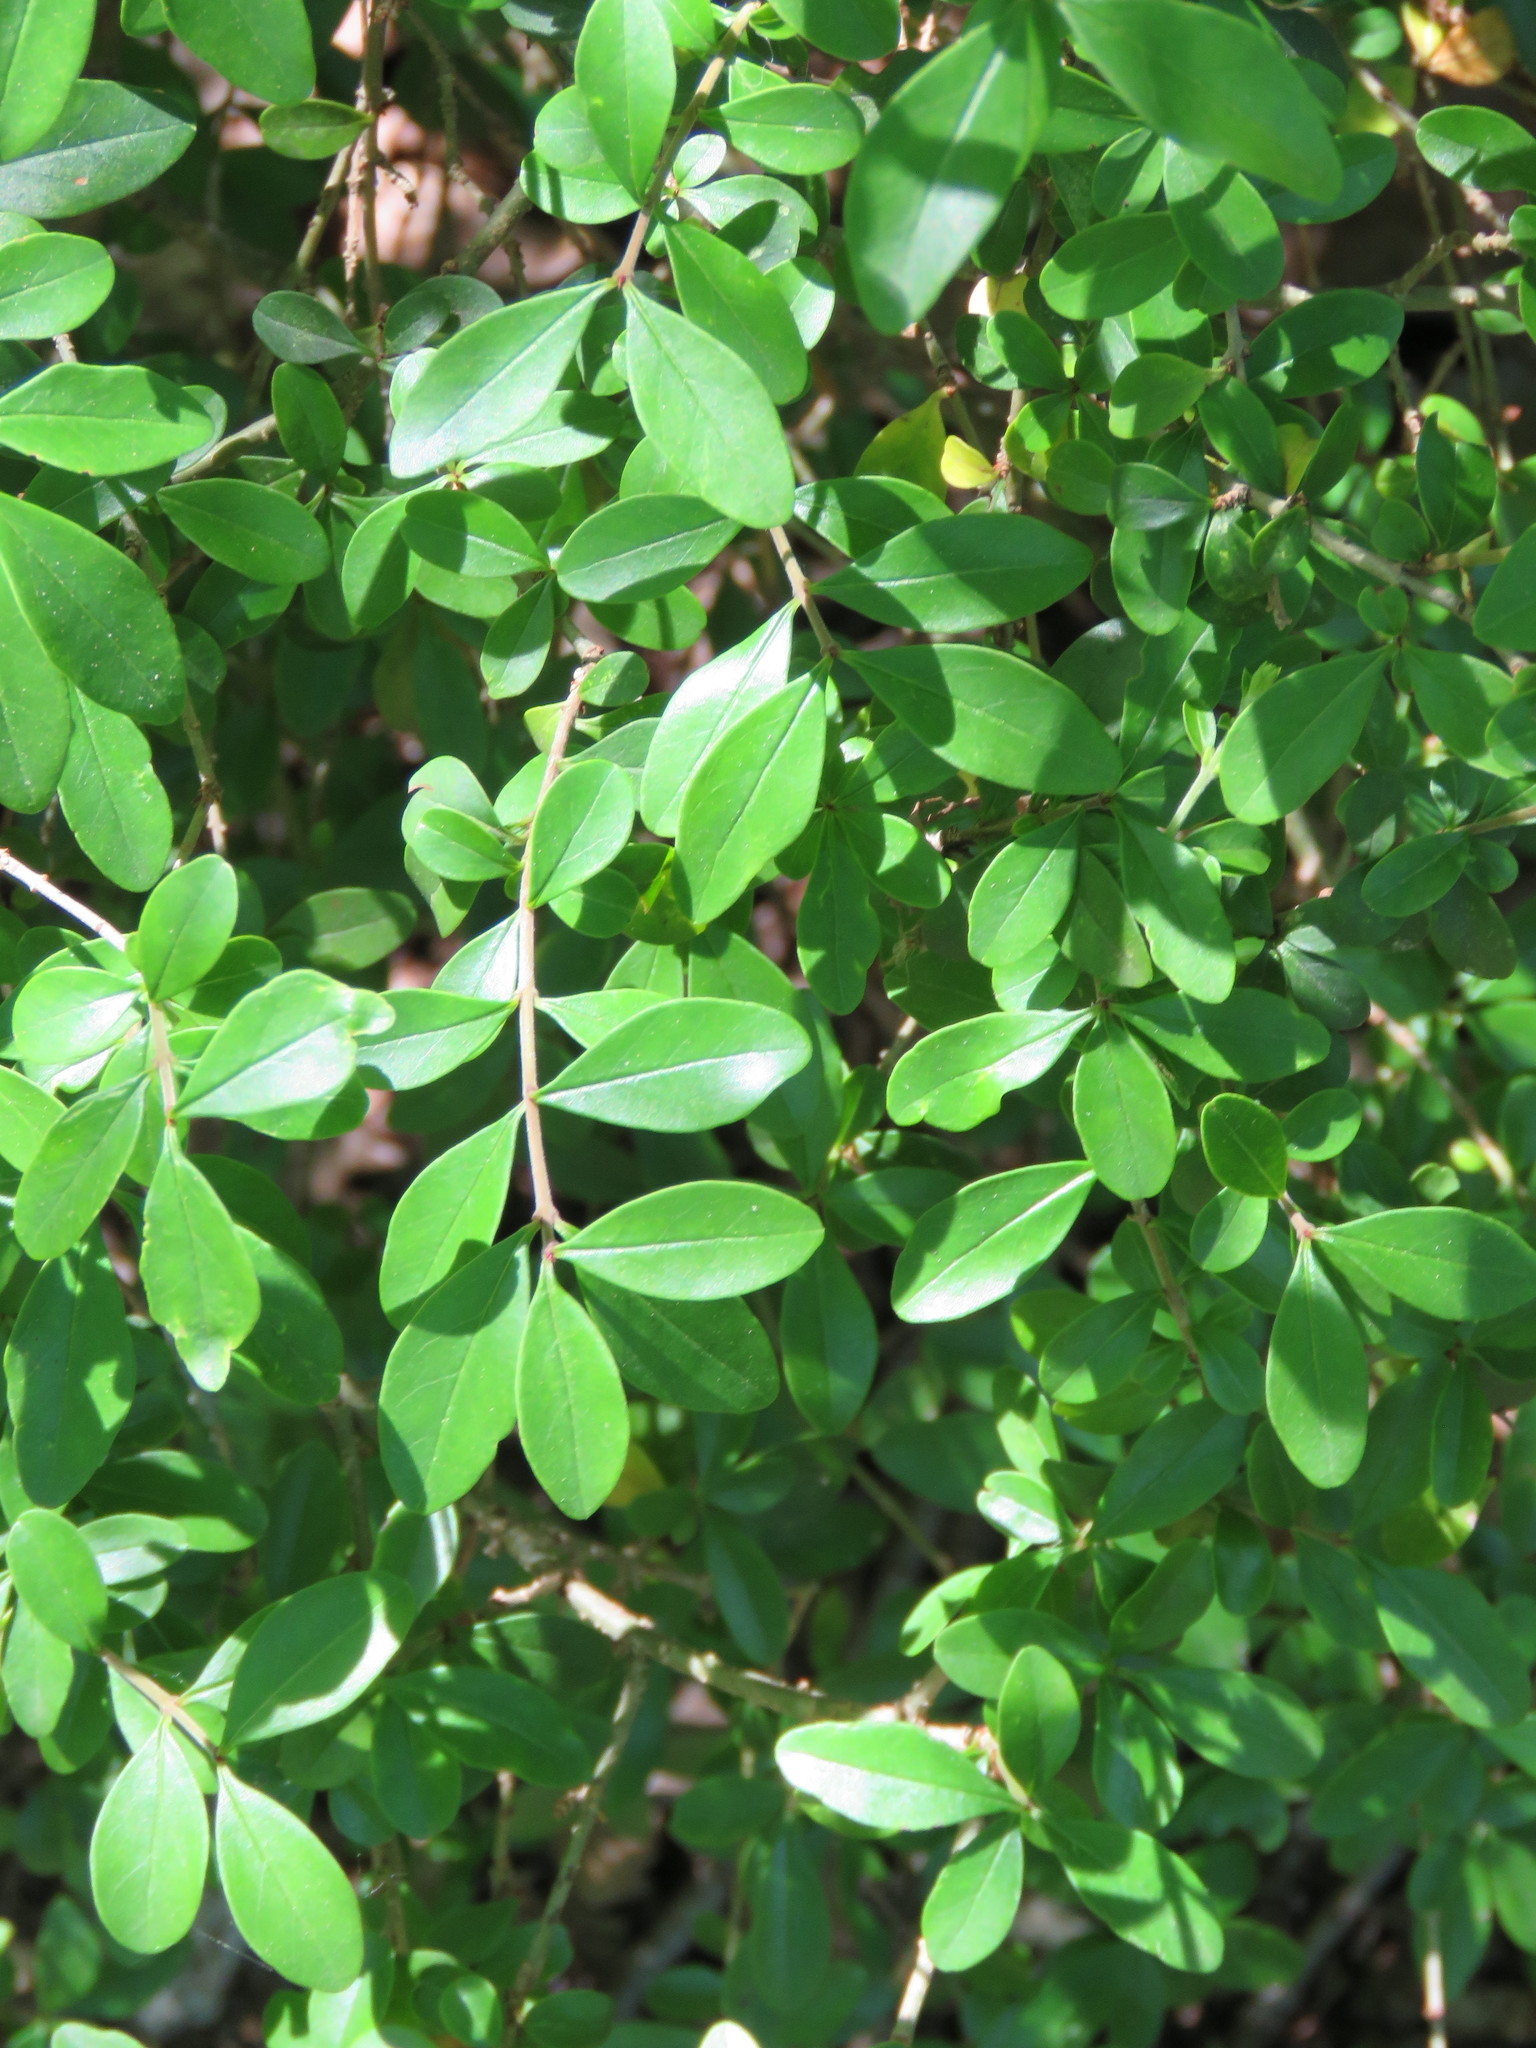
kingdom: Plantae
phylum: Tracheophyta
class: Magnoliopsida
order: Lamiales
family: Oleaceae
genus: Ligustrum
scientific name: Ligustrum quihoui
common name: Waxyleaf privet
